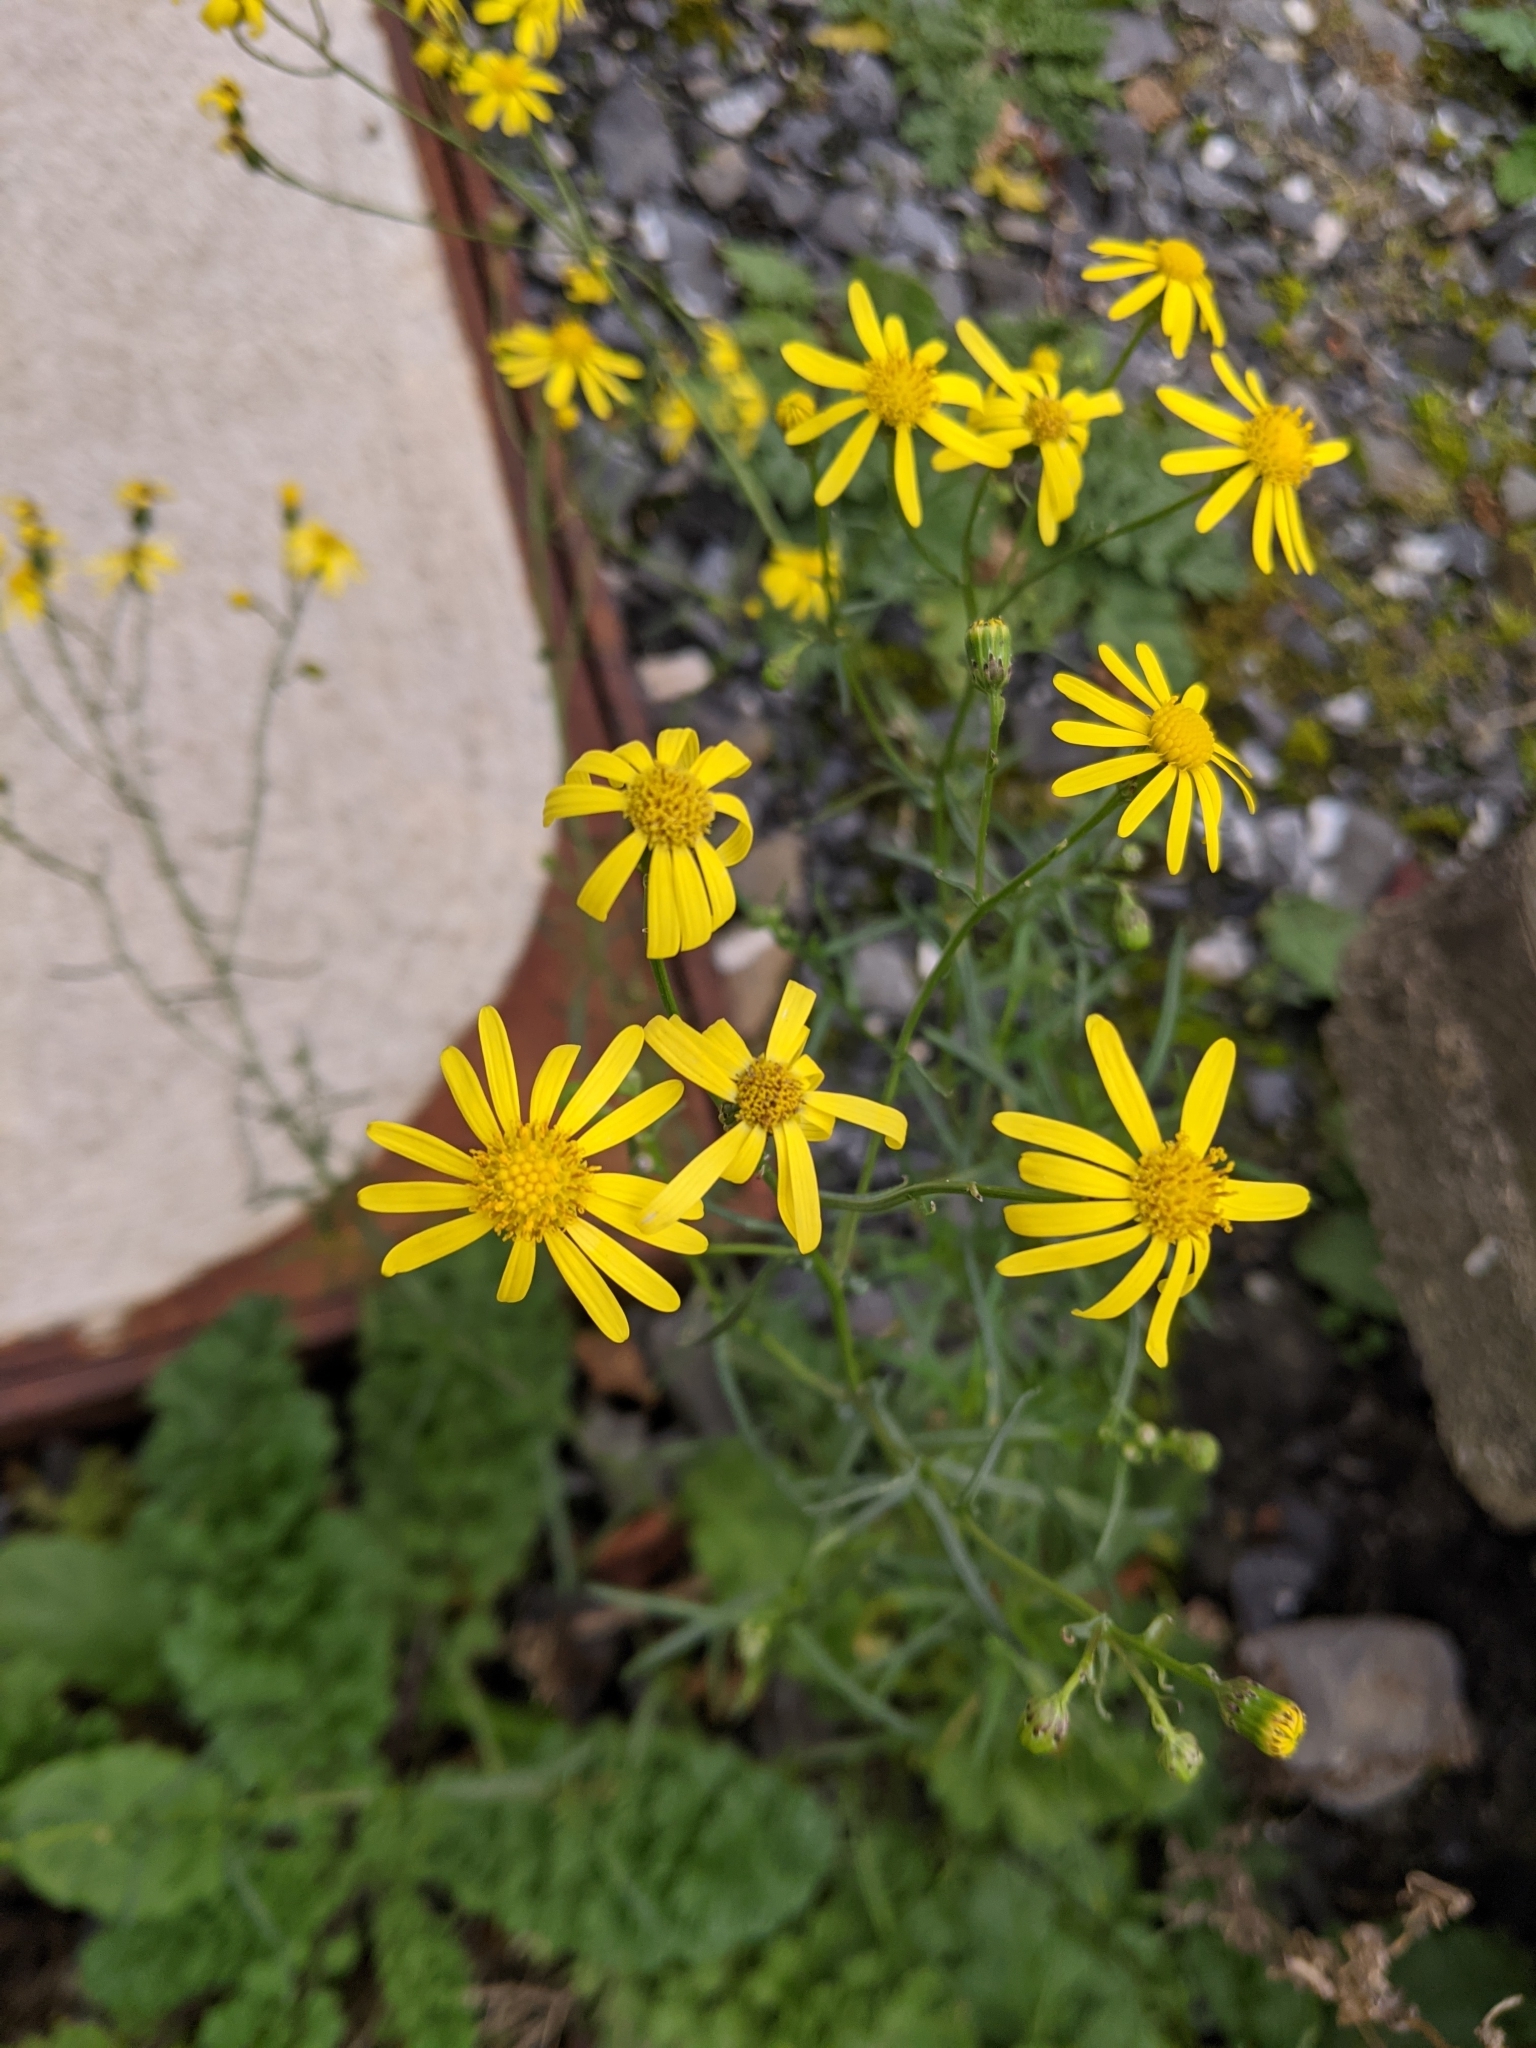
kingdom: Plantae
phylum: Tracheophyta
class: Magnoliopsida
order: Asterales
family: Asteraceae
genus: Senecio
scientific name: Senecio inaequidens
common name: Narrow-leaved ragwort
